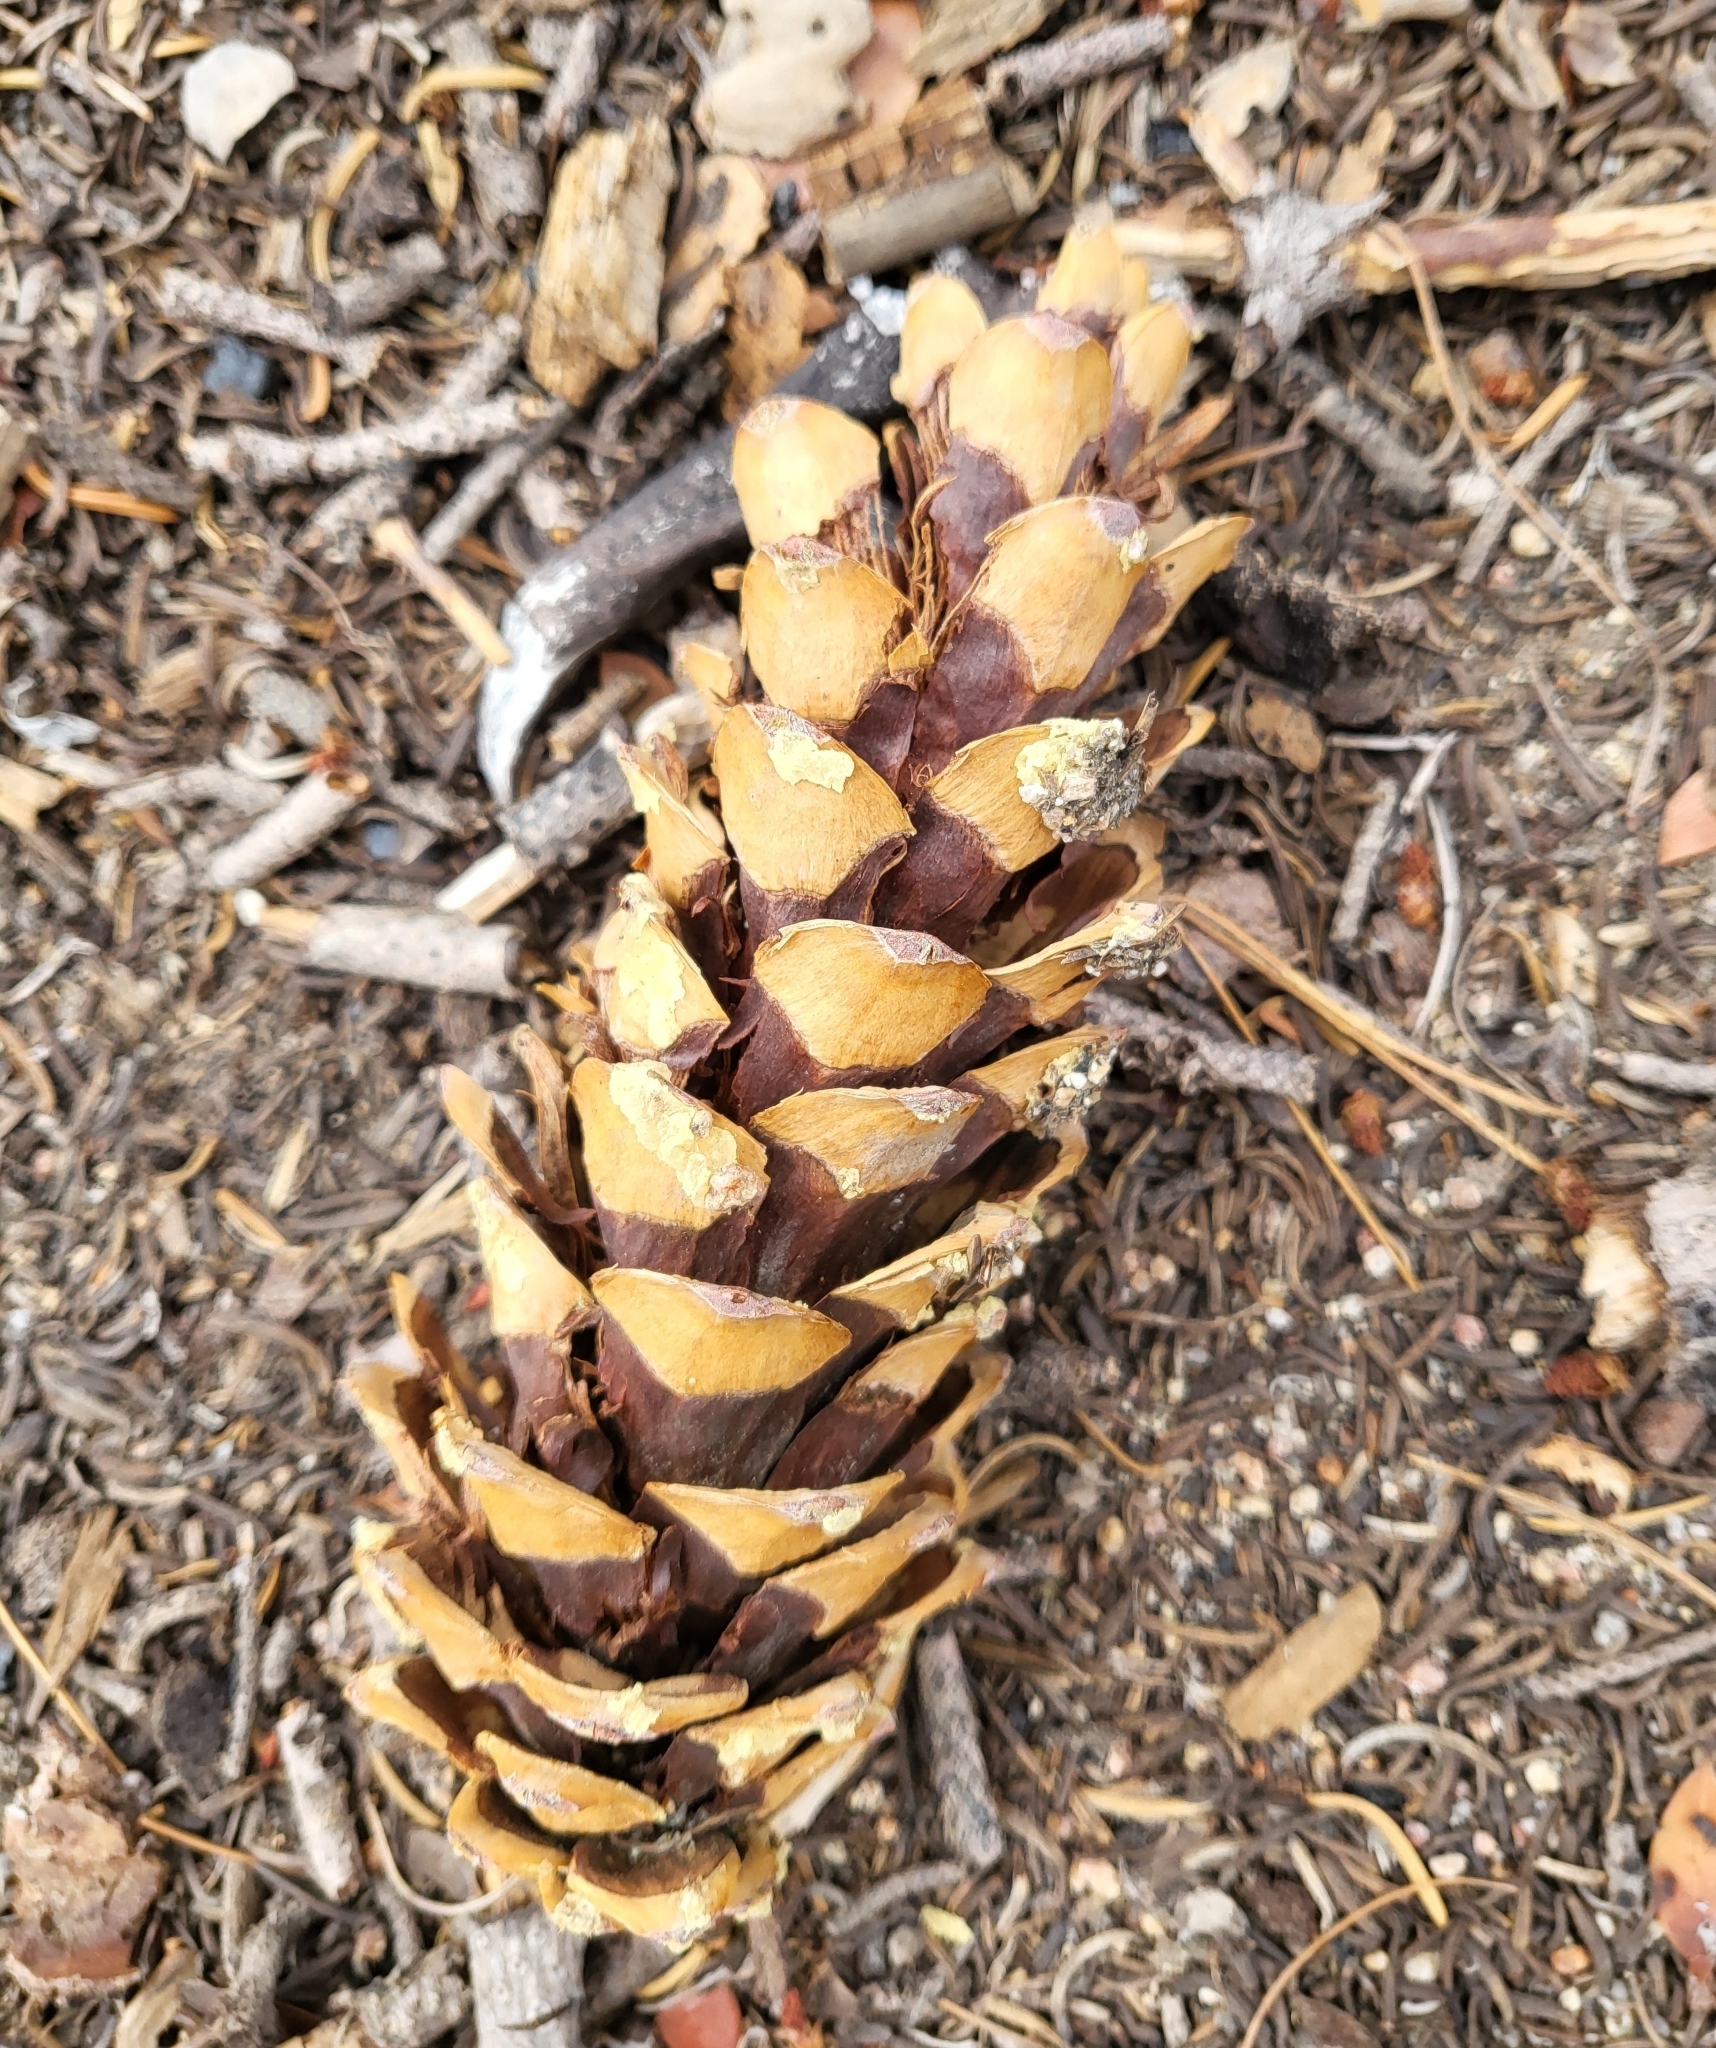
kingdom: Plantae
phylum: Tracheophyta
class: Pinopsida
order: Pinales
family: Pinaceae
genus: Pinus
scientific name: Pinus monticola
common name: Western white pine
